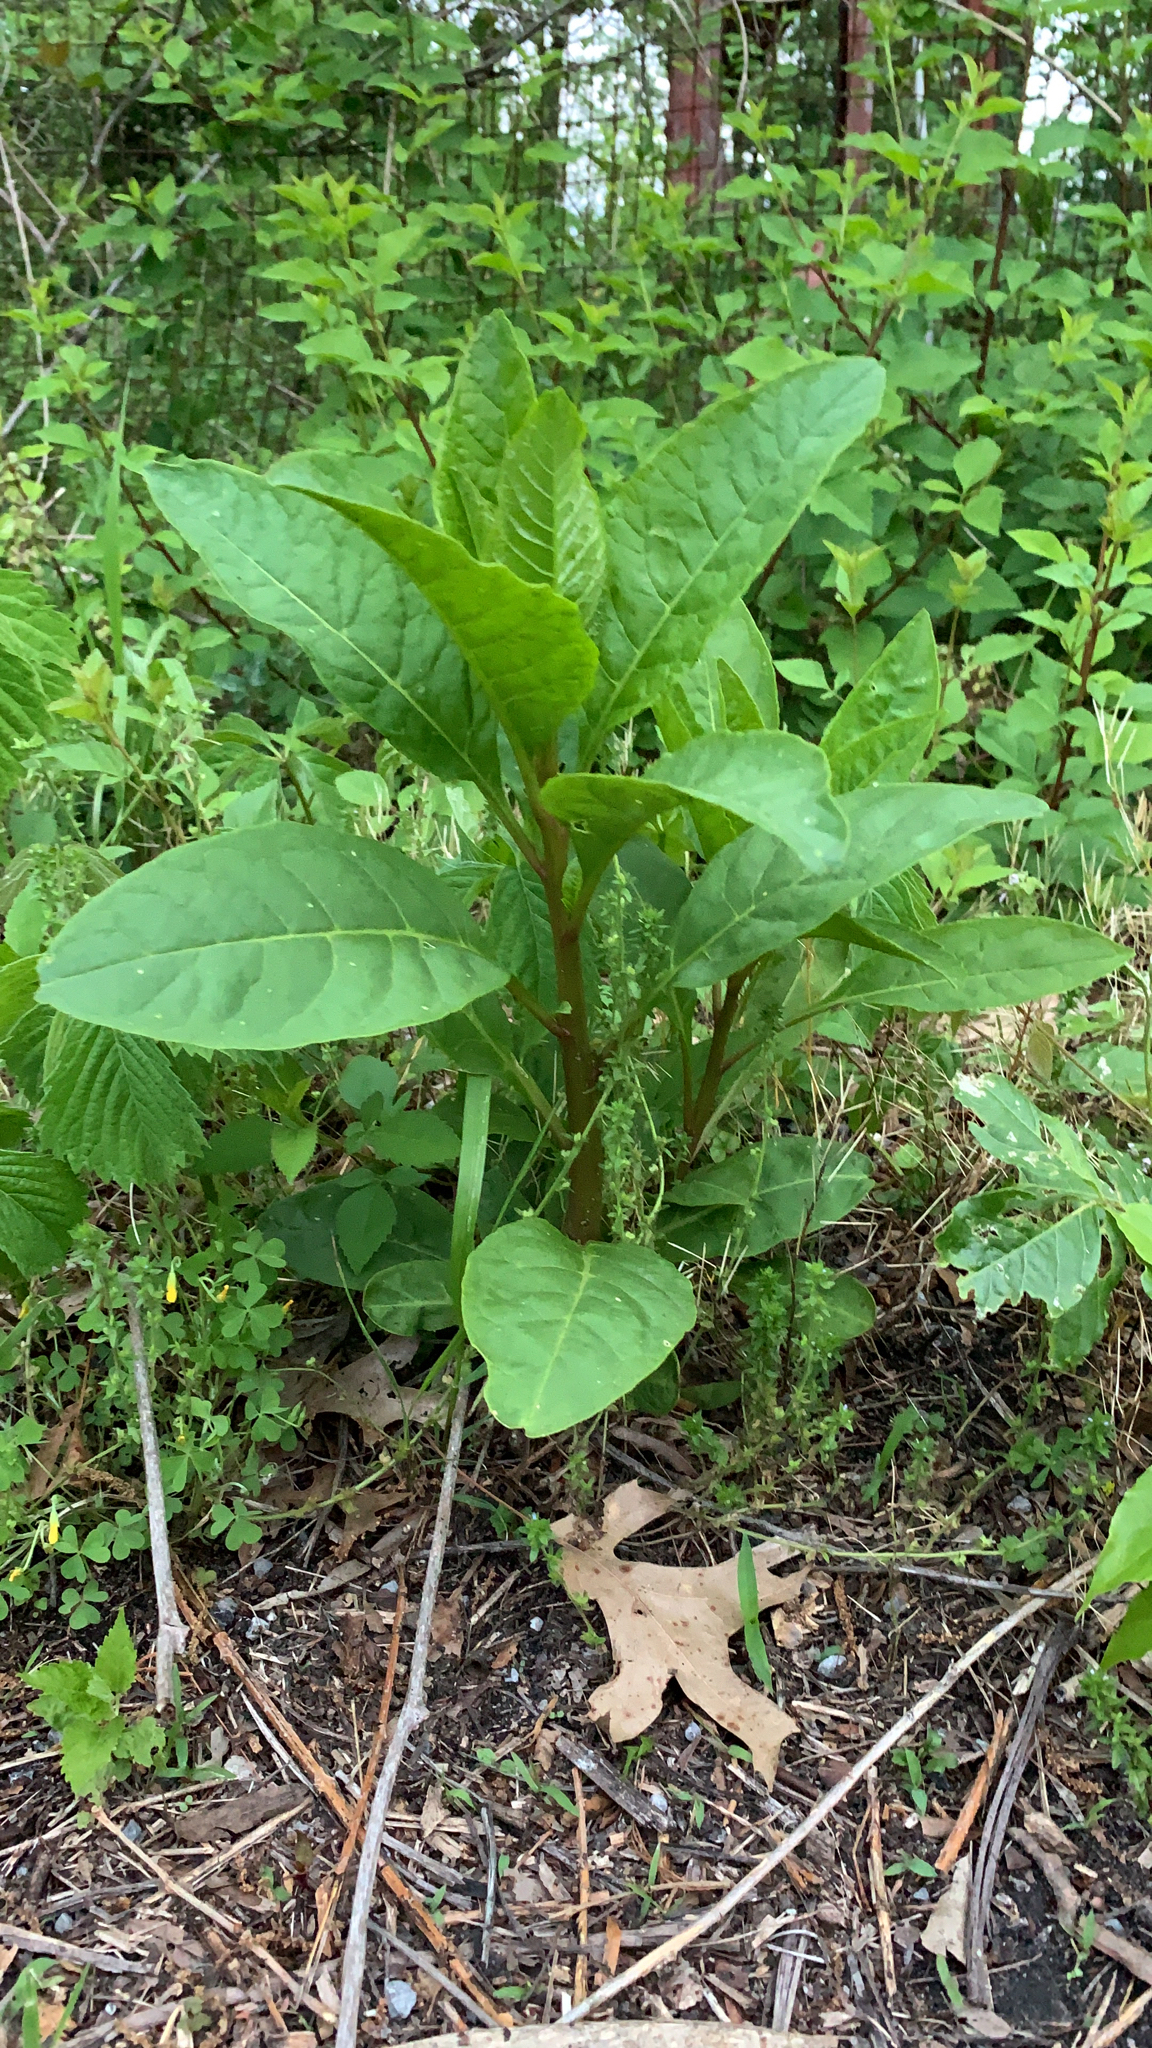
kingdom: Plantae
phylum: Tracheophyta
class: Magnoliopsida
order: Caryophyllales
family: Phytolaccaceae
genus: Phytolacca
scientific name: Phytolacca americana
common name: American pokeweed
